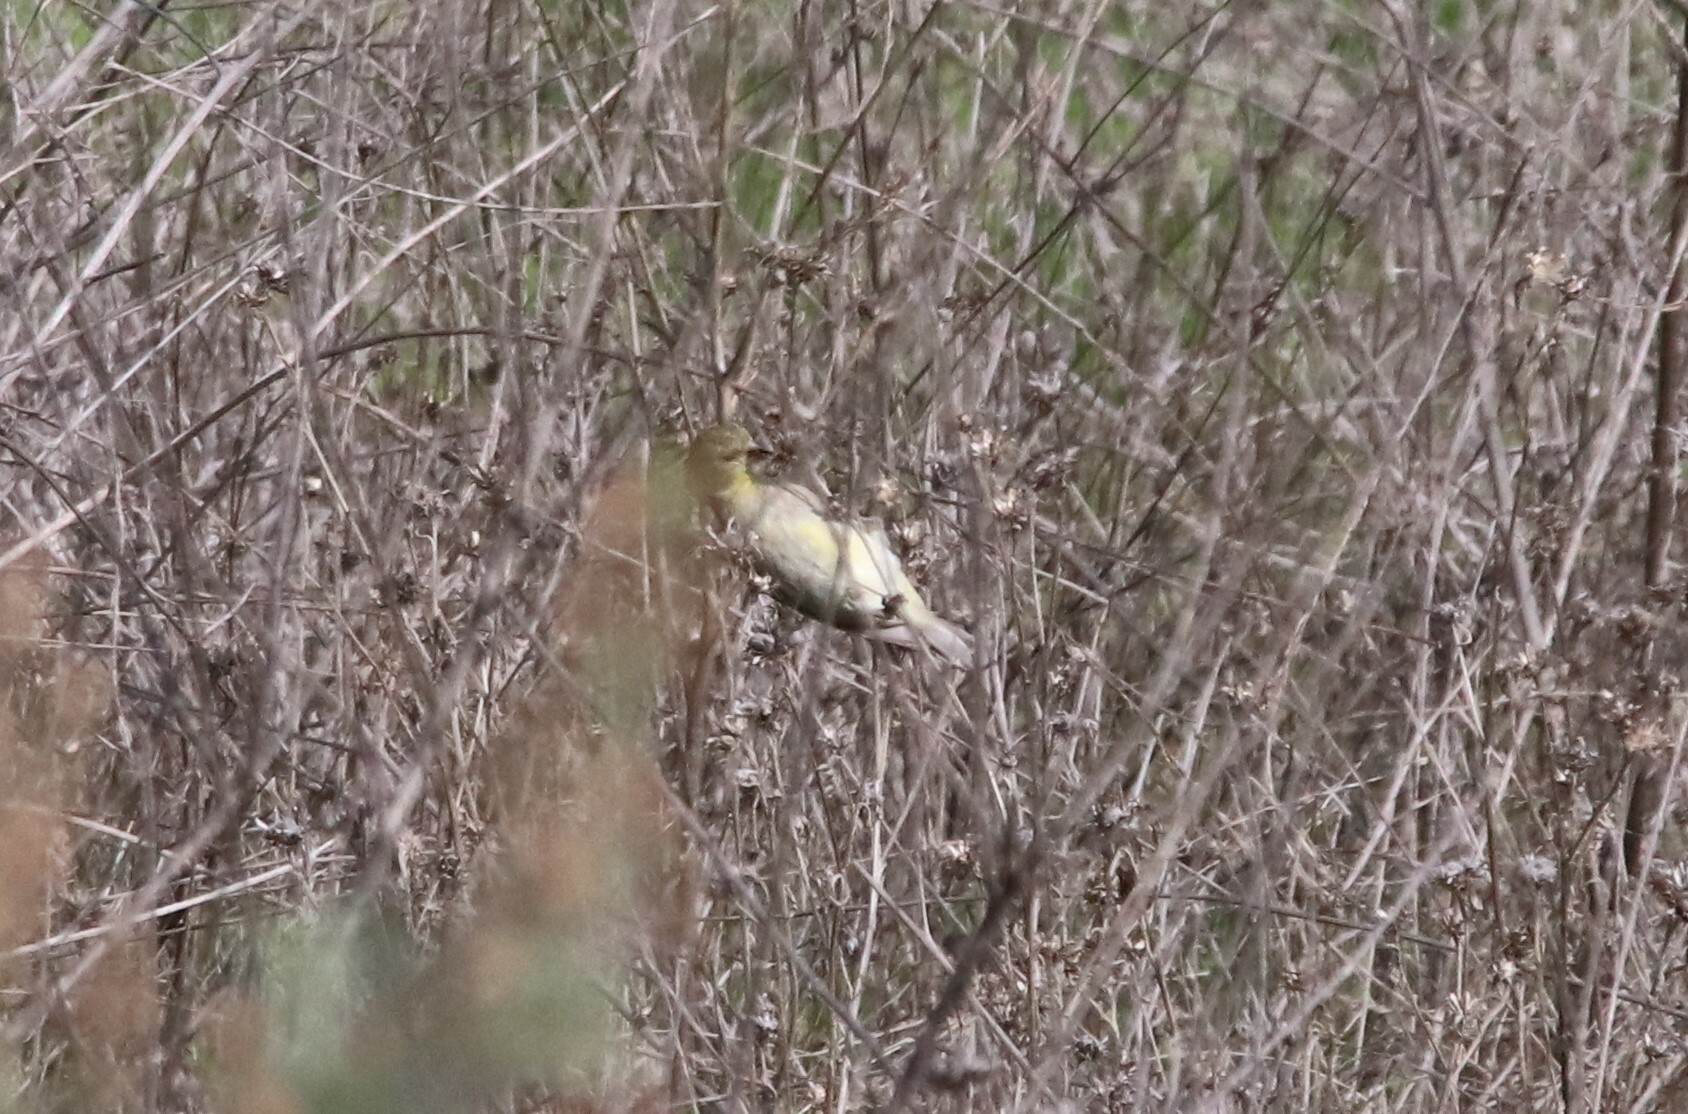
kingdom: Animalia
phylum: Chordata
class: Aves
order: Passeriformes
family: Fringillidae
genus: Spinus
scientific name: Spinus psaltria
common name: Lesser goldfinch
